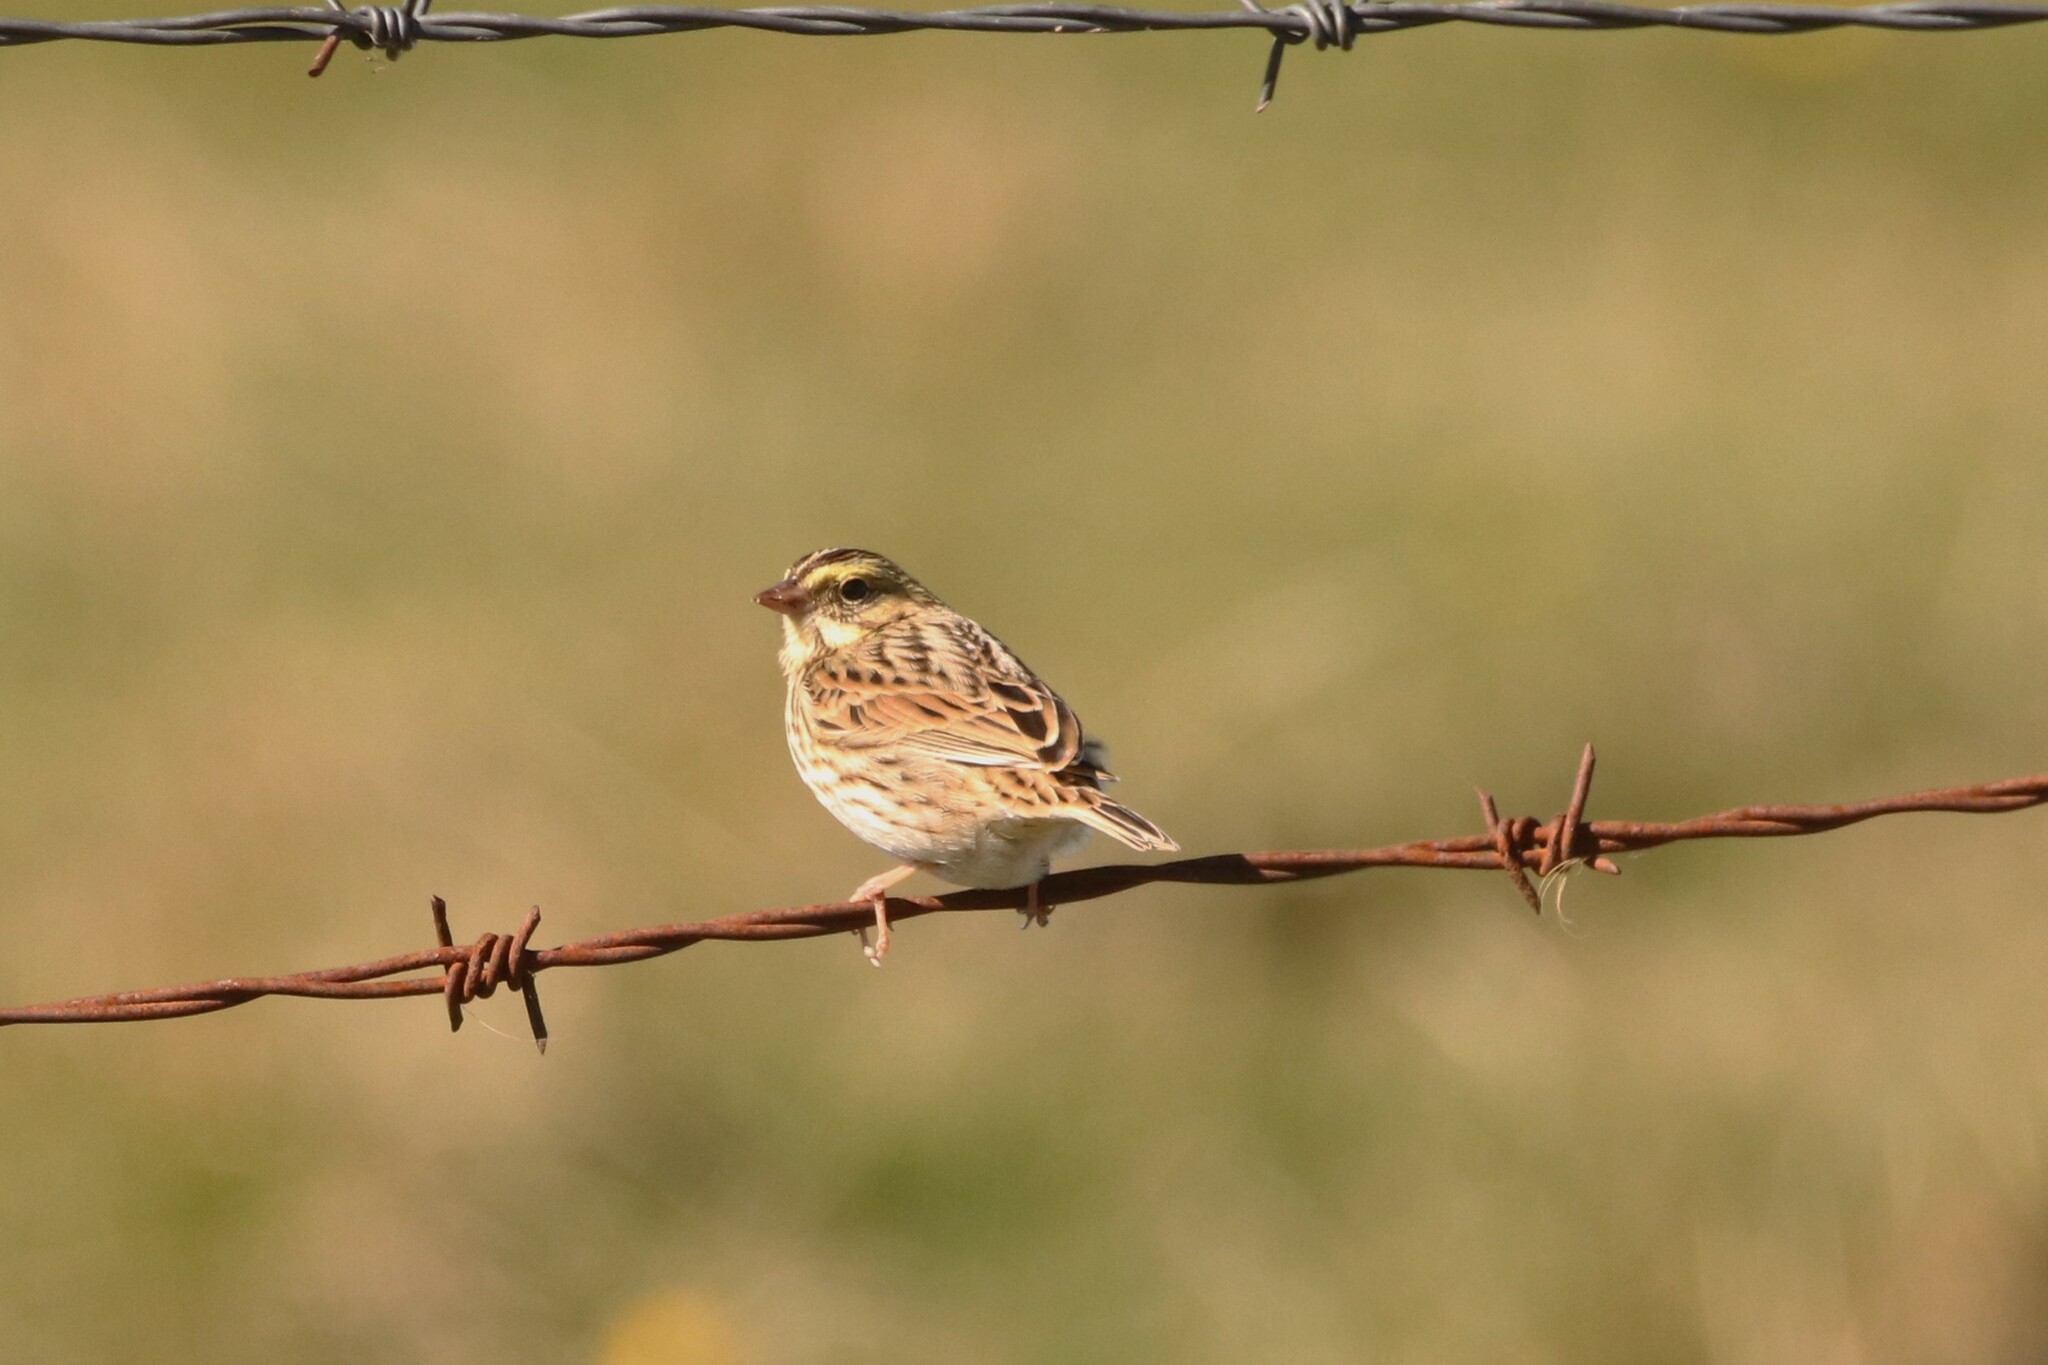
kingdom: Animalia
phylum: Chordata
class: Aves
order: Passeriformes
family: Passerellidae
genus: Passerculus
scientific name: Passerculus sandwichensis
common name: Savannah sparrow
